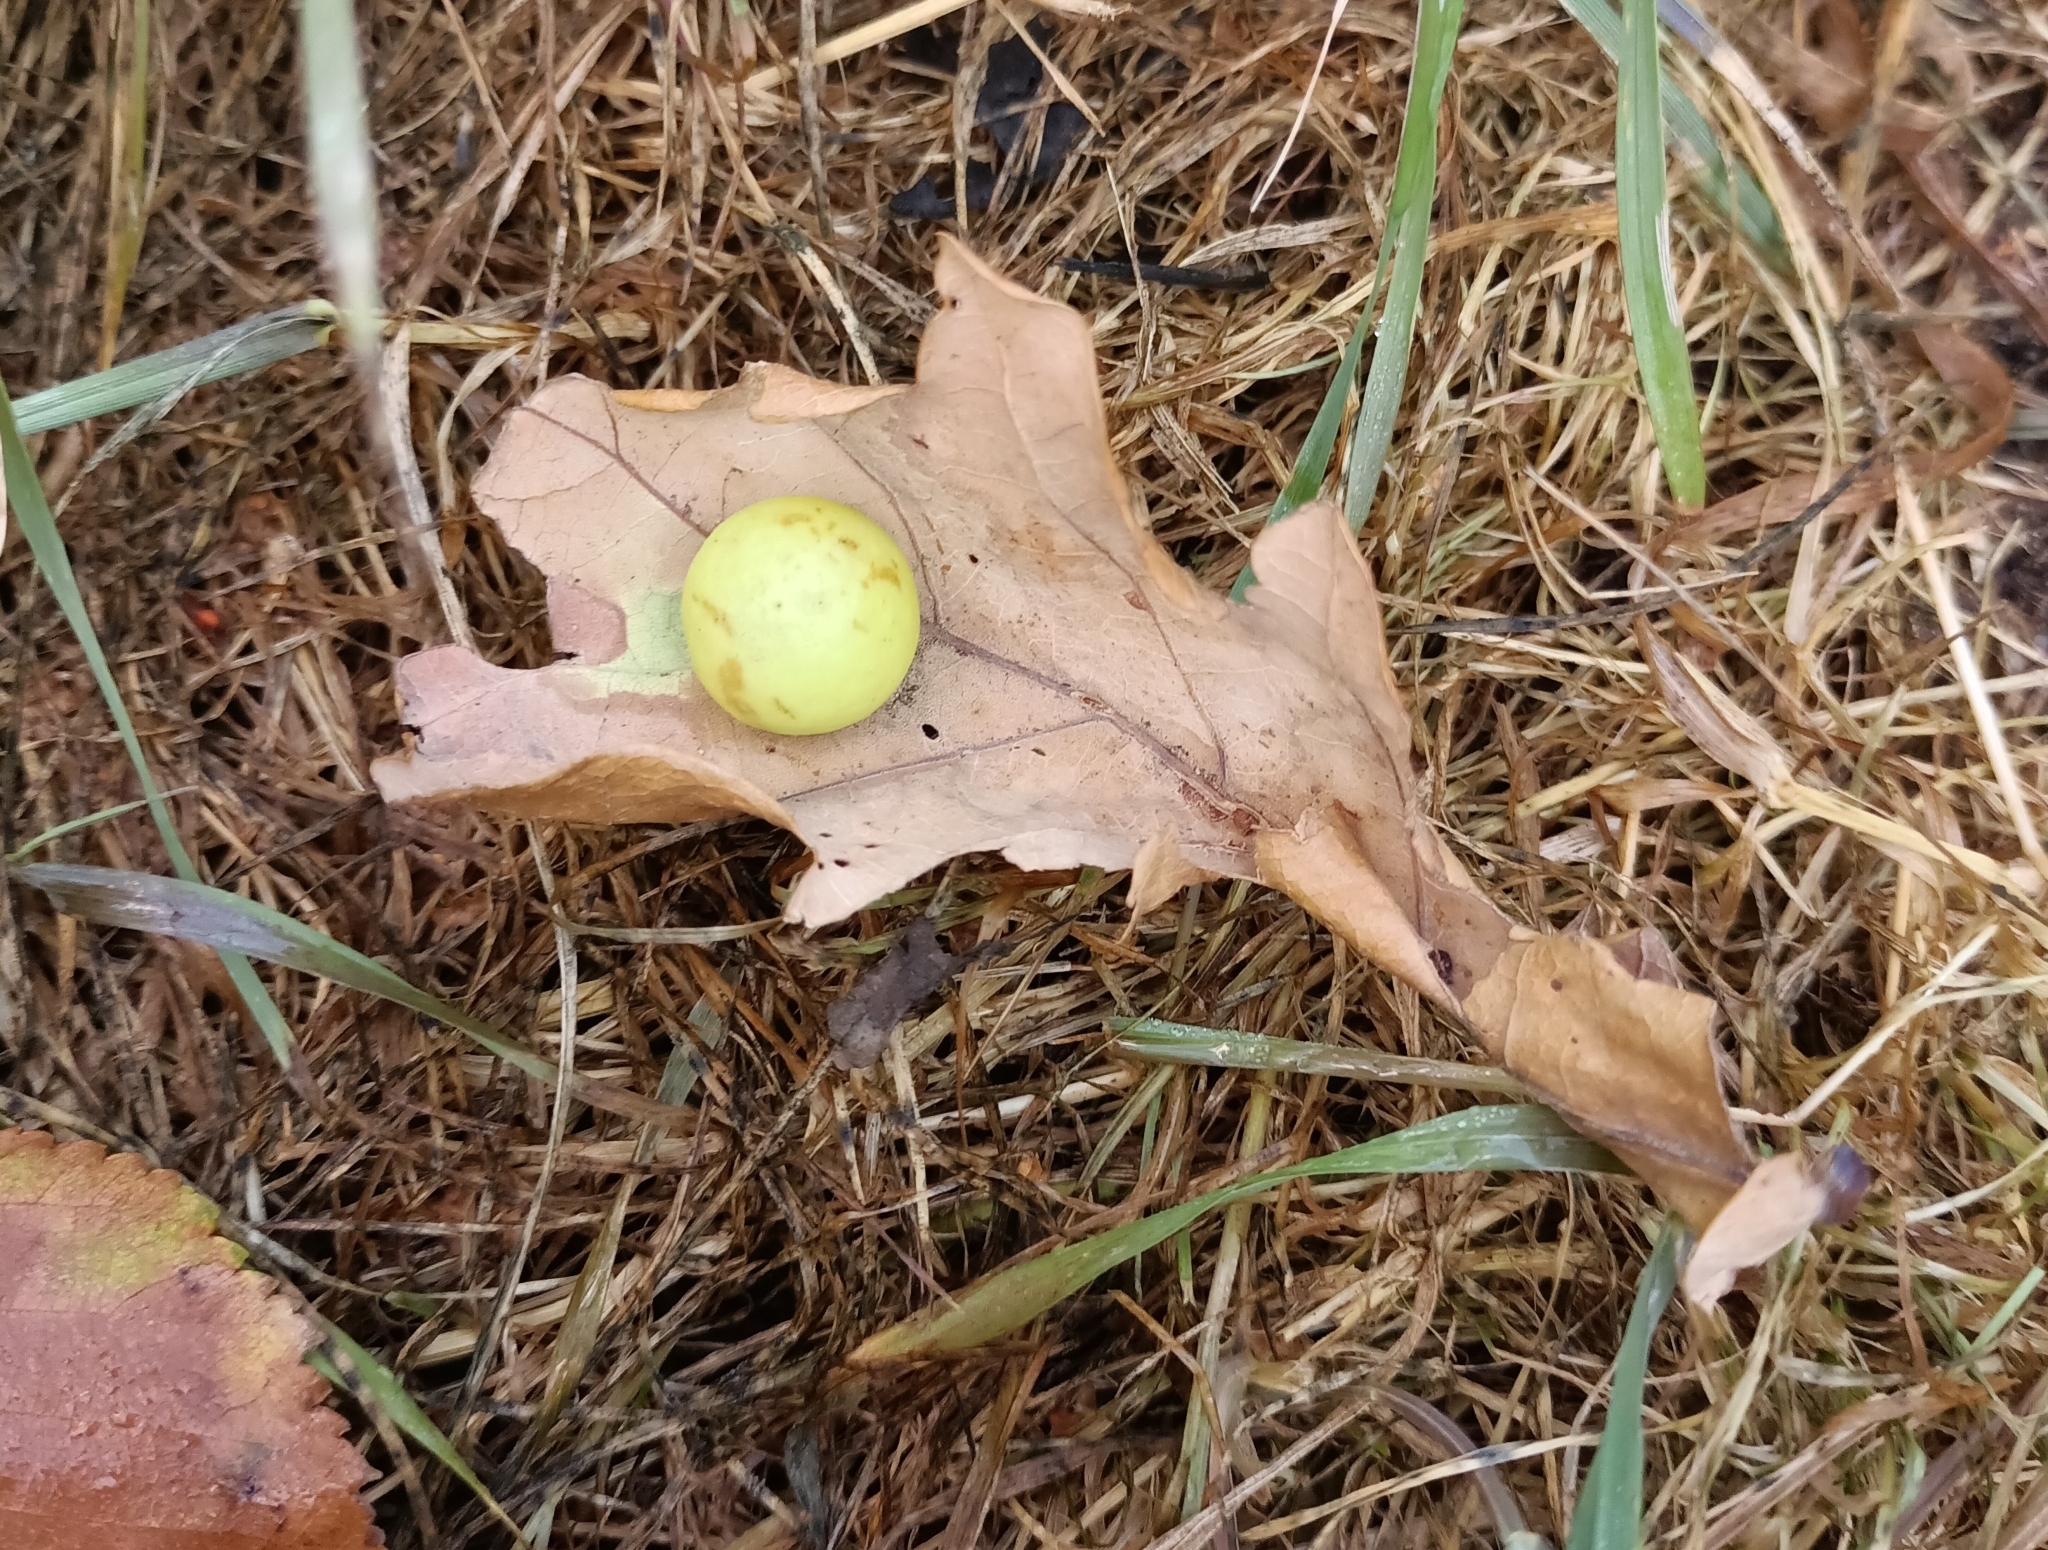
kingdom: Animalia
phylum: Arthropoda
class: Insecta
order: Hymenoptera
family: Cynipidae
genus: Cynips
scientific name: Cynips quercusfolii
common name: Cherry gall
